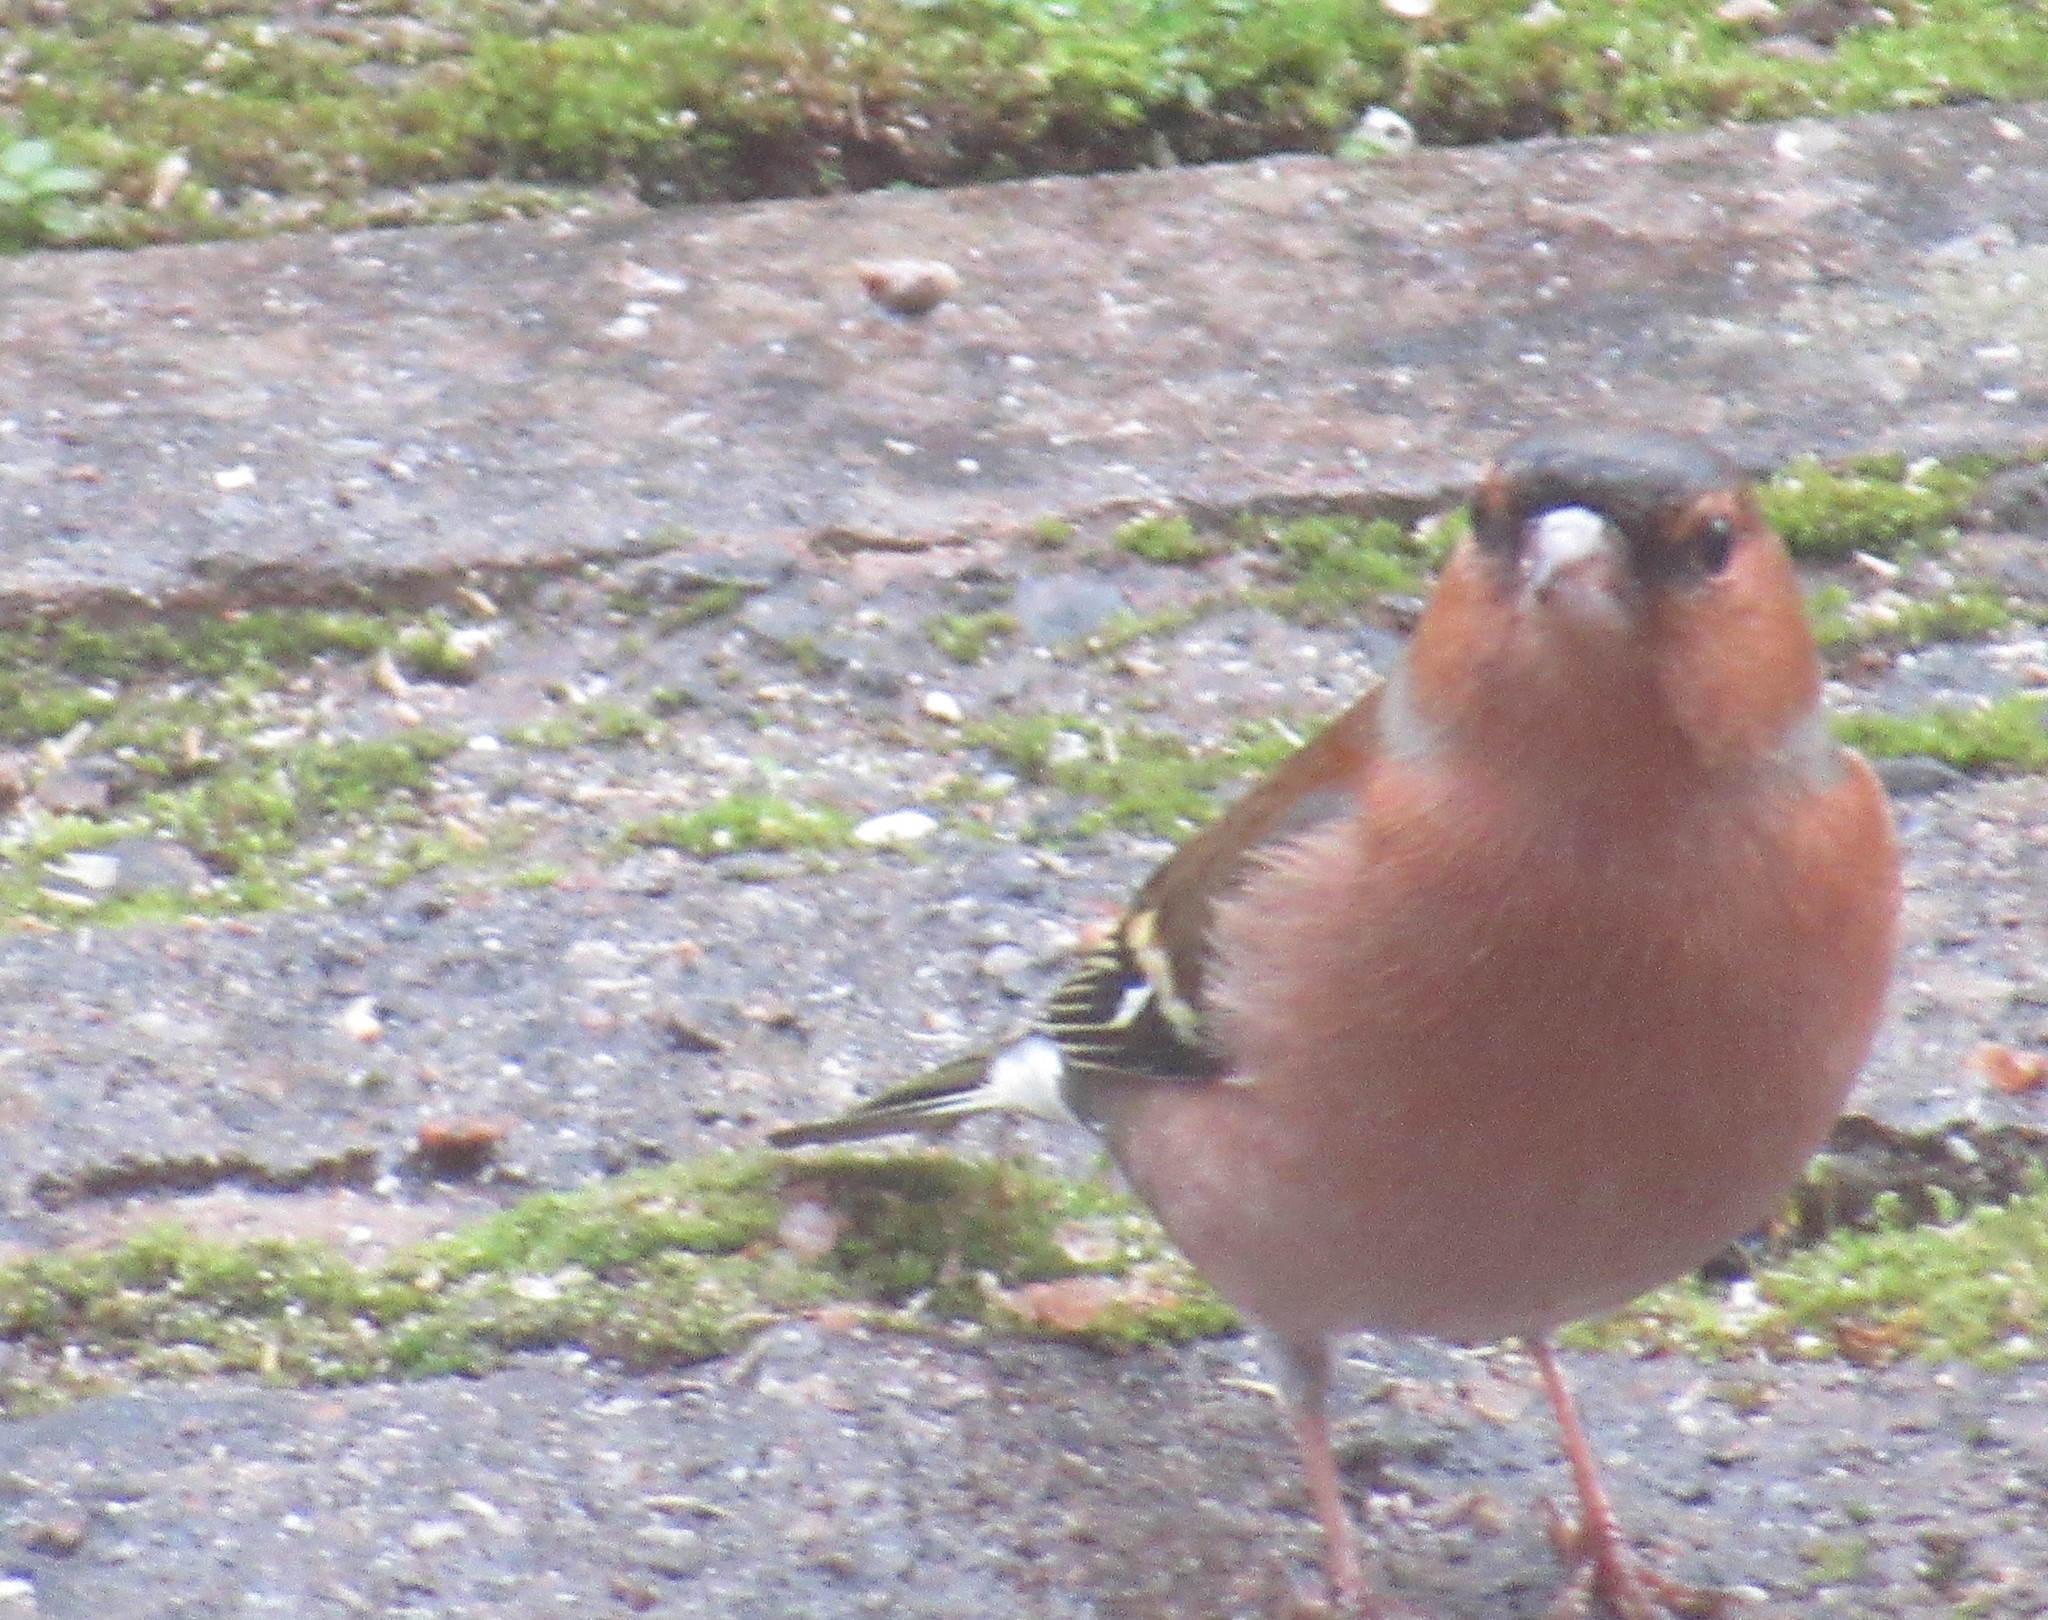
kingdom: Animalia
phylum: Chordata
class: Aves
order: Passeriformes
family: Fringillidae
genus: Fringilla
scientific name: Fringilla coelebs
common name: Common chaffinch
